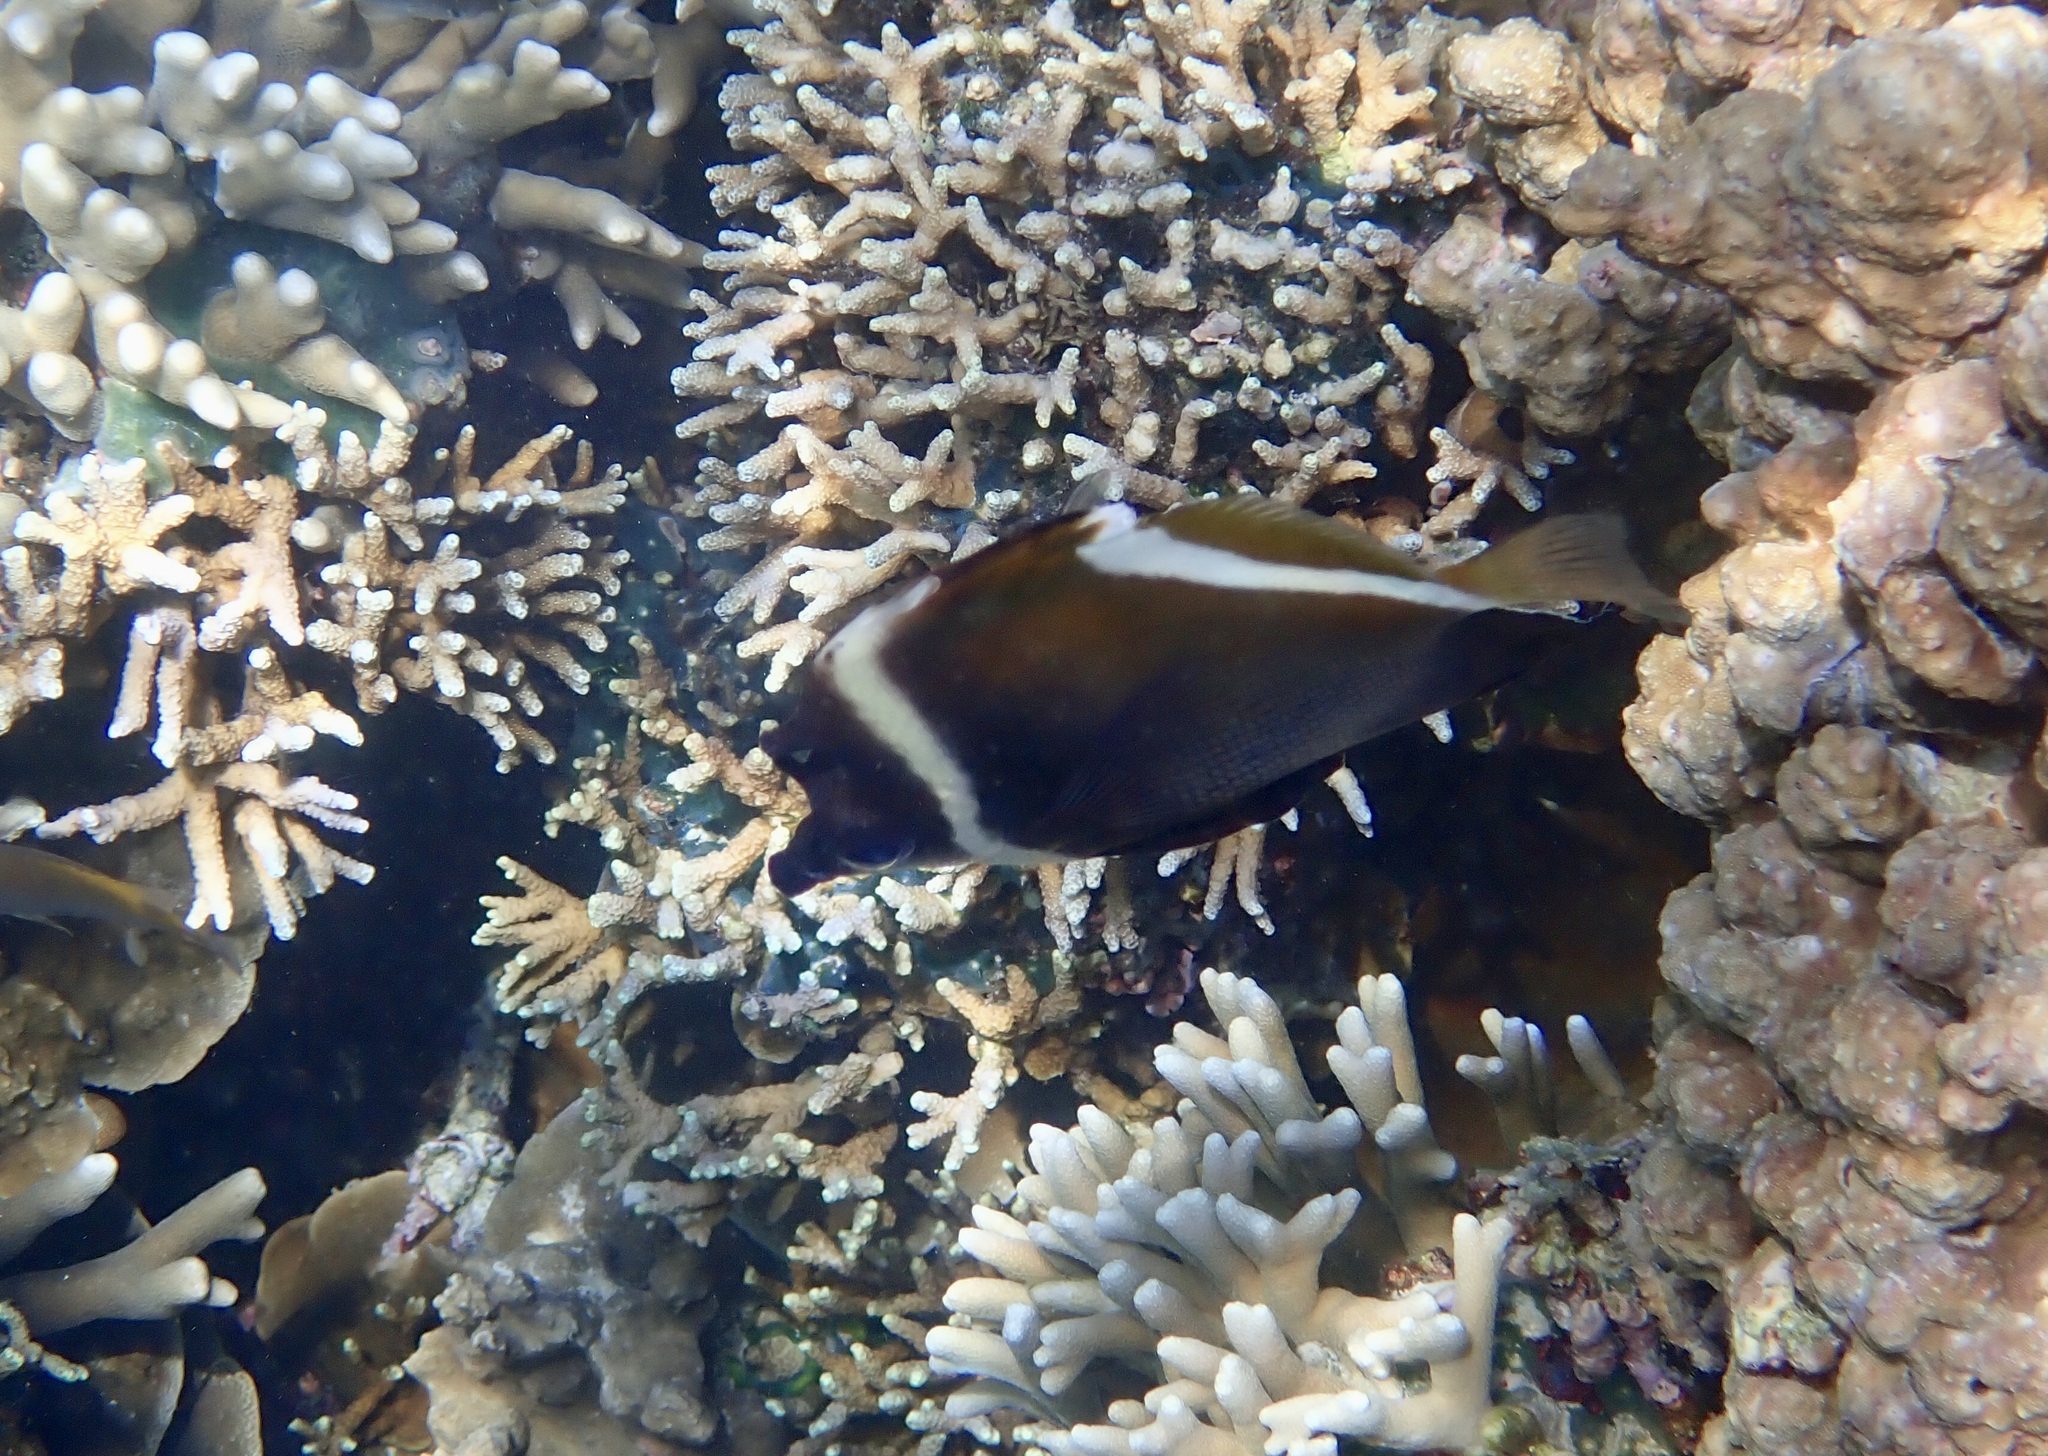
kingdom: Animalia
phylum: Chordata
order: Perciformes
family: Chaetodontidae
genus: Heniochus
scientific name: Heniochus varius
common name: Horned bannerfish
